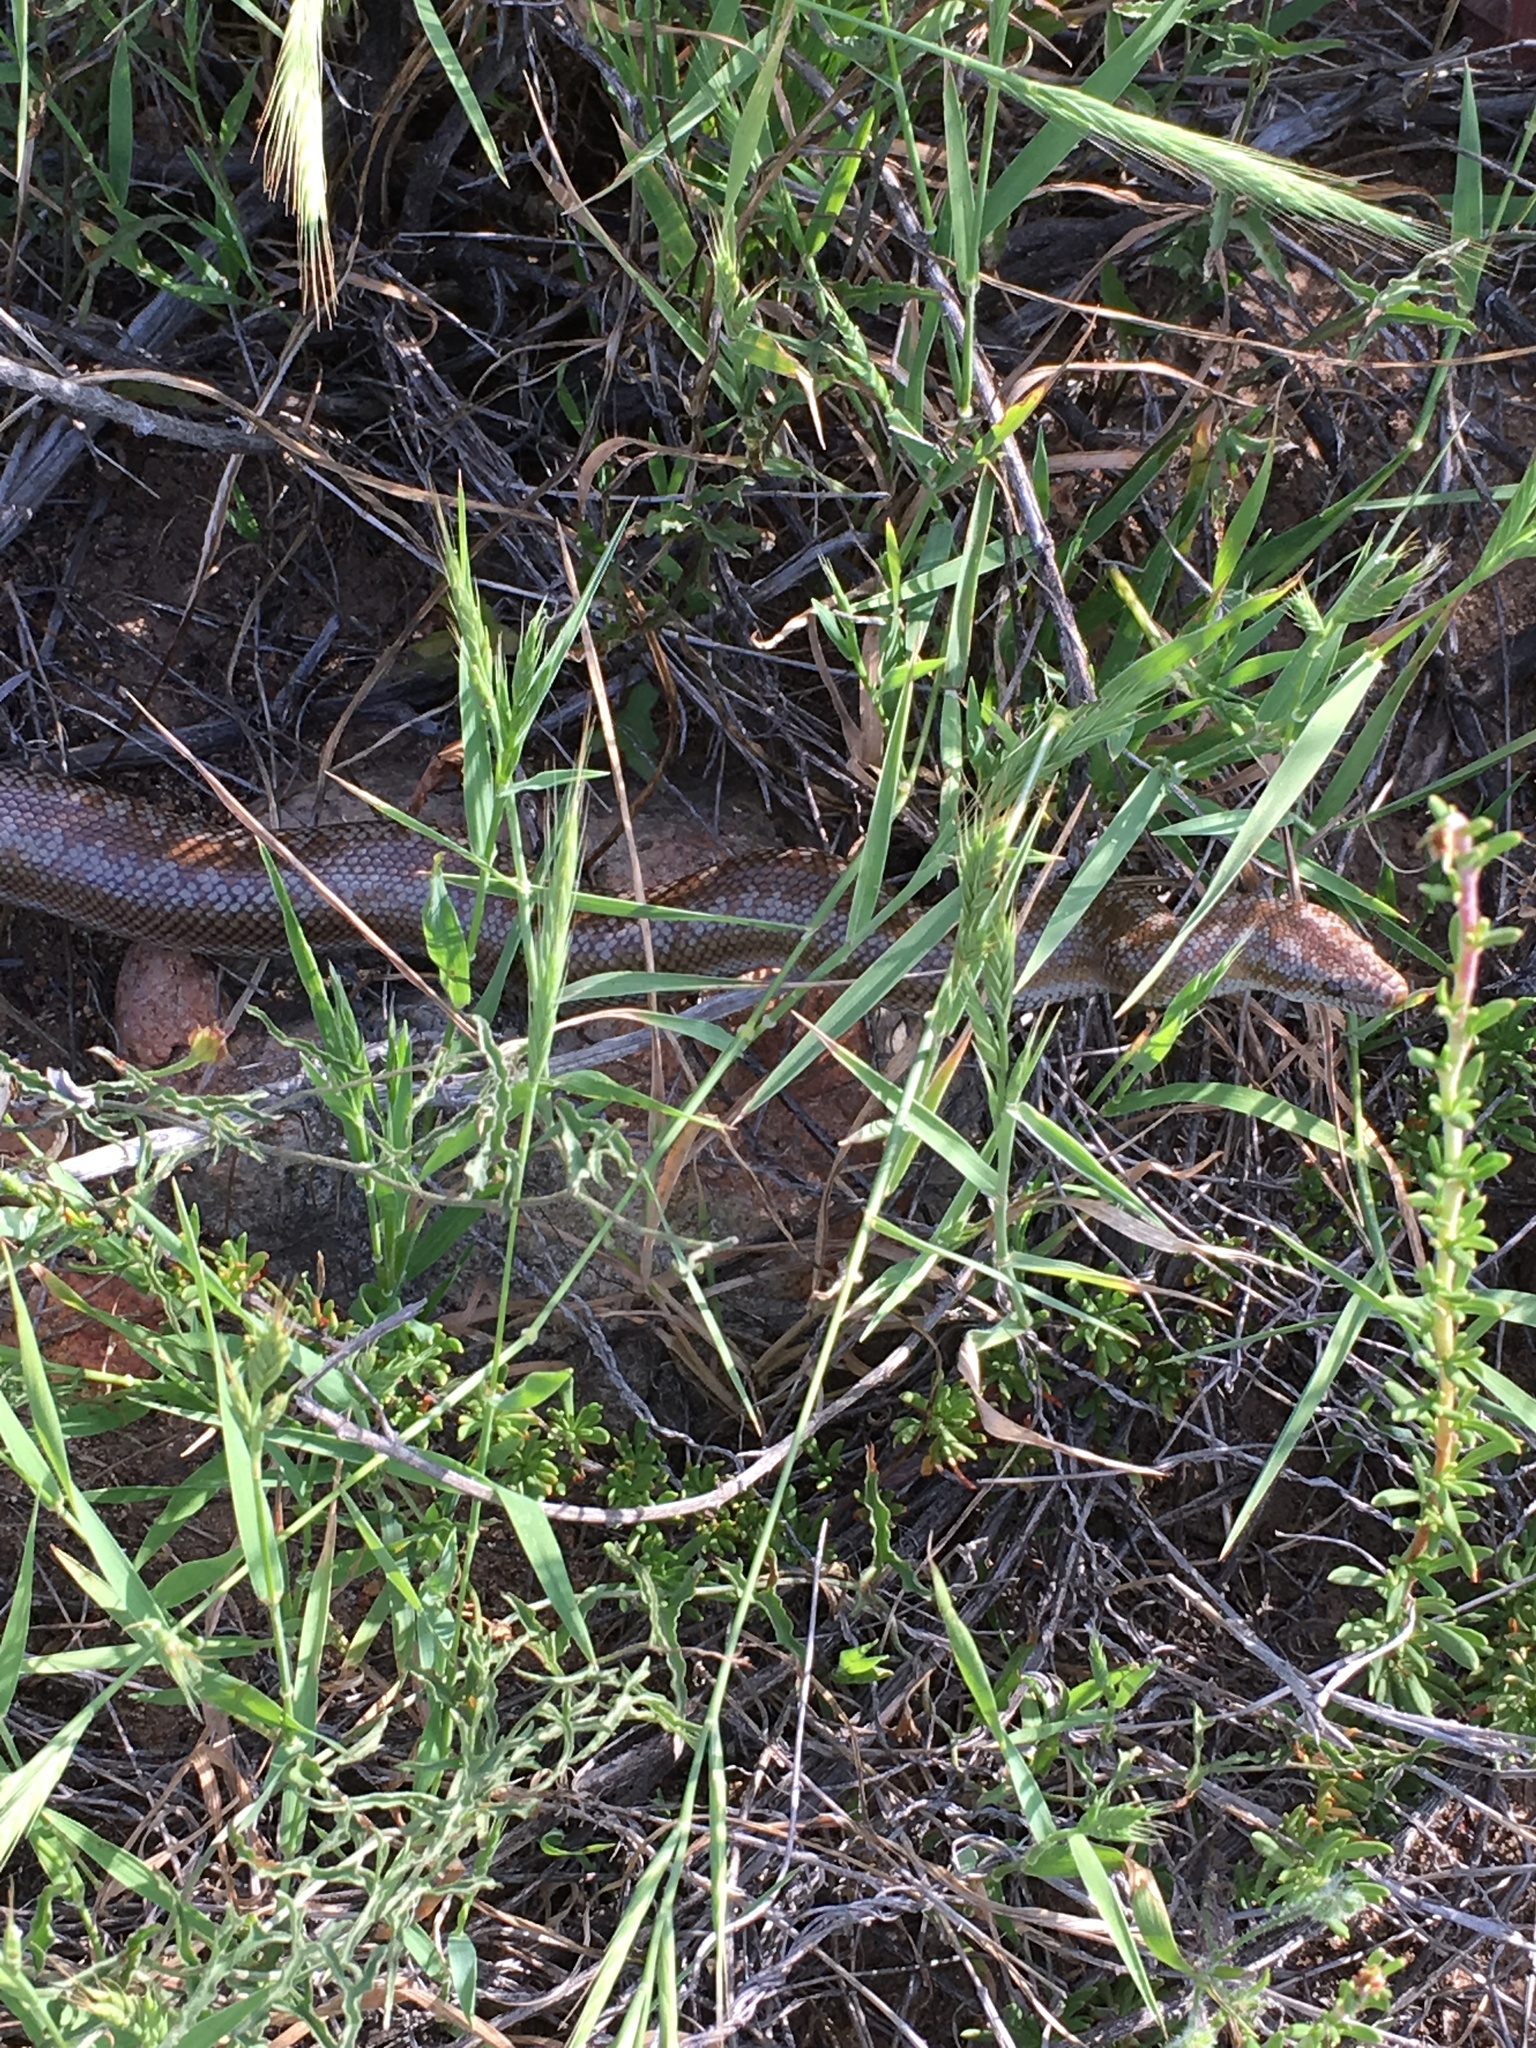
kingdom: Animalia
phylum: Chordata
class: Squamata
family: Boidae
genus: Lichanura
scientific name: Lichanura orcutti
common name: Northern three-lined boa
